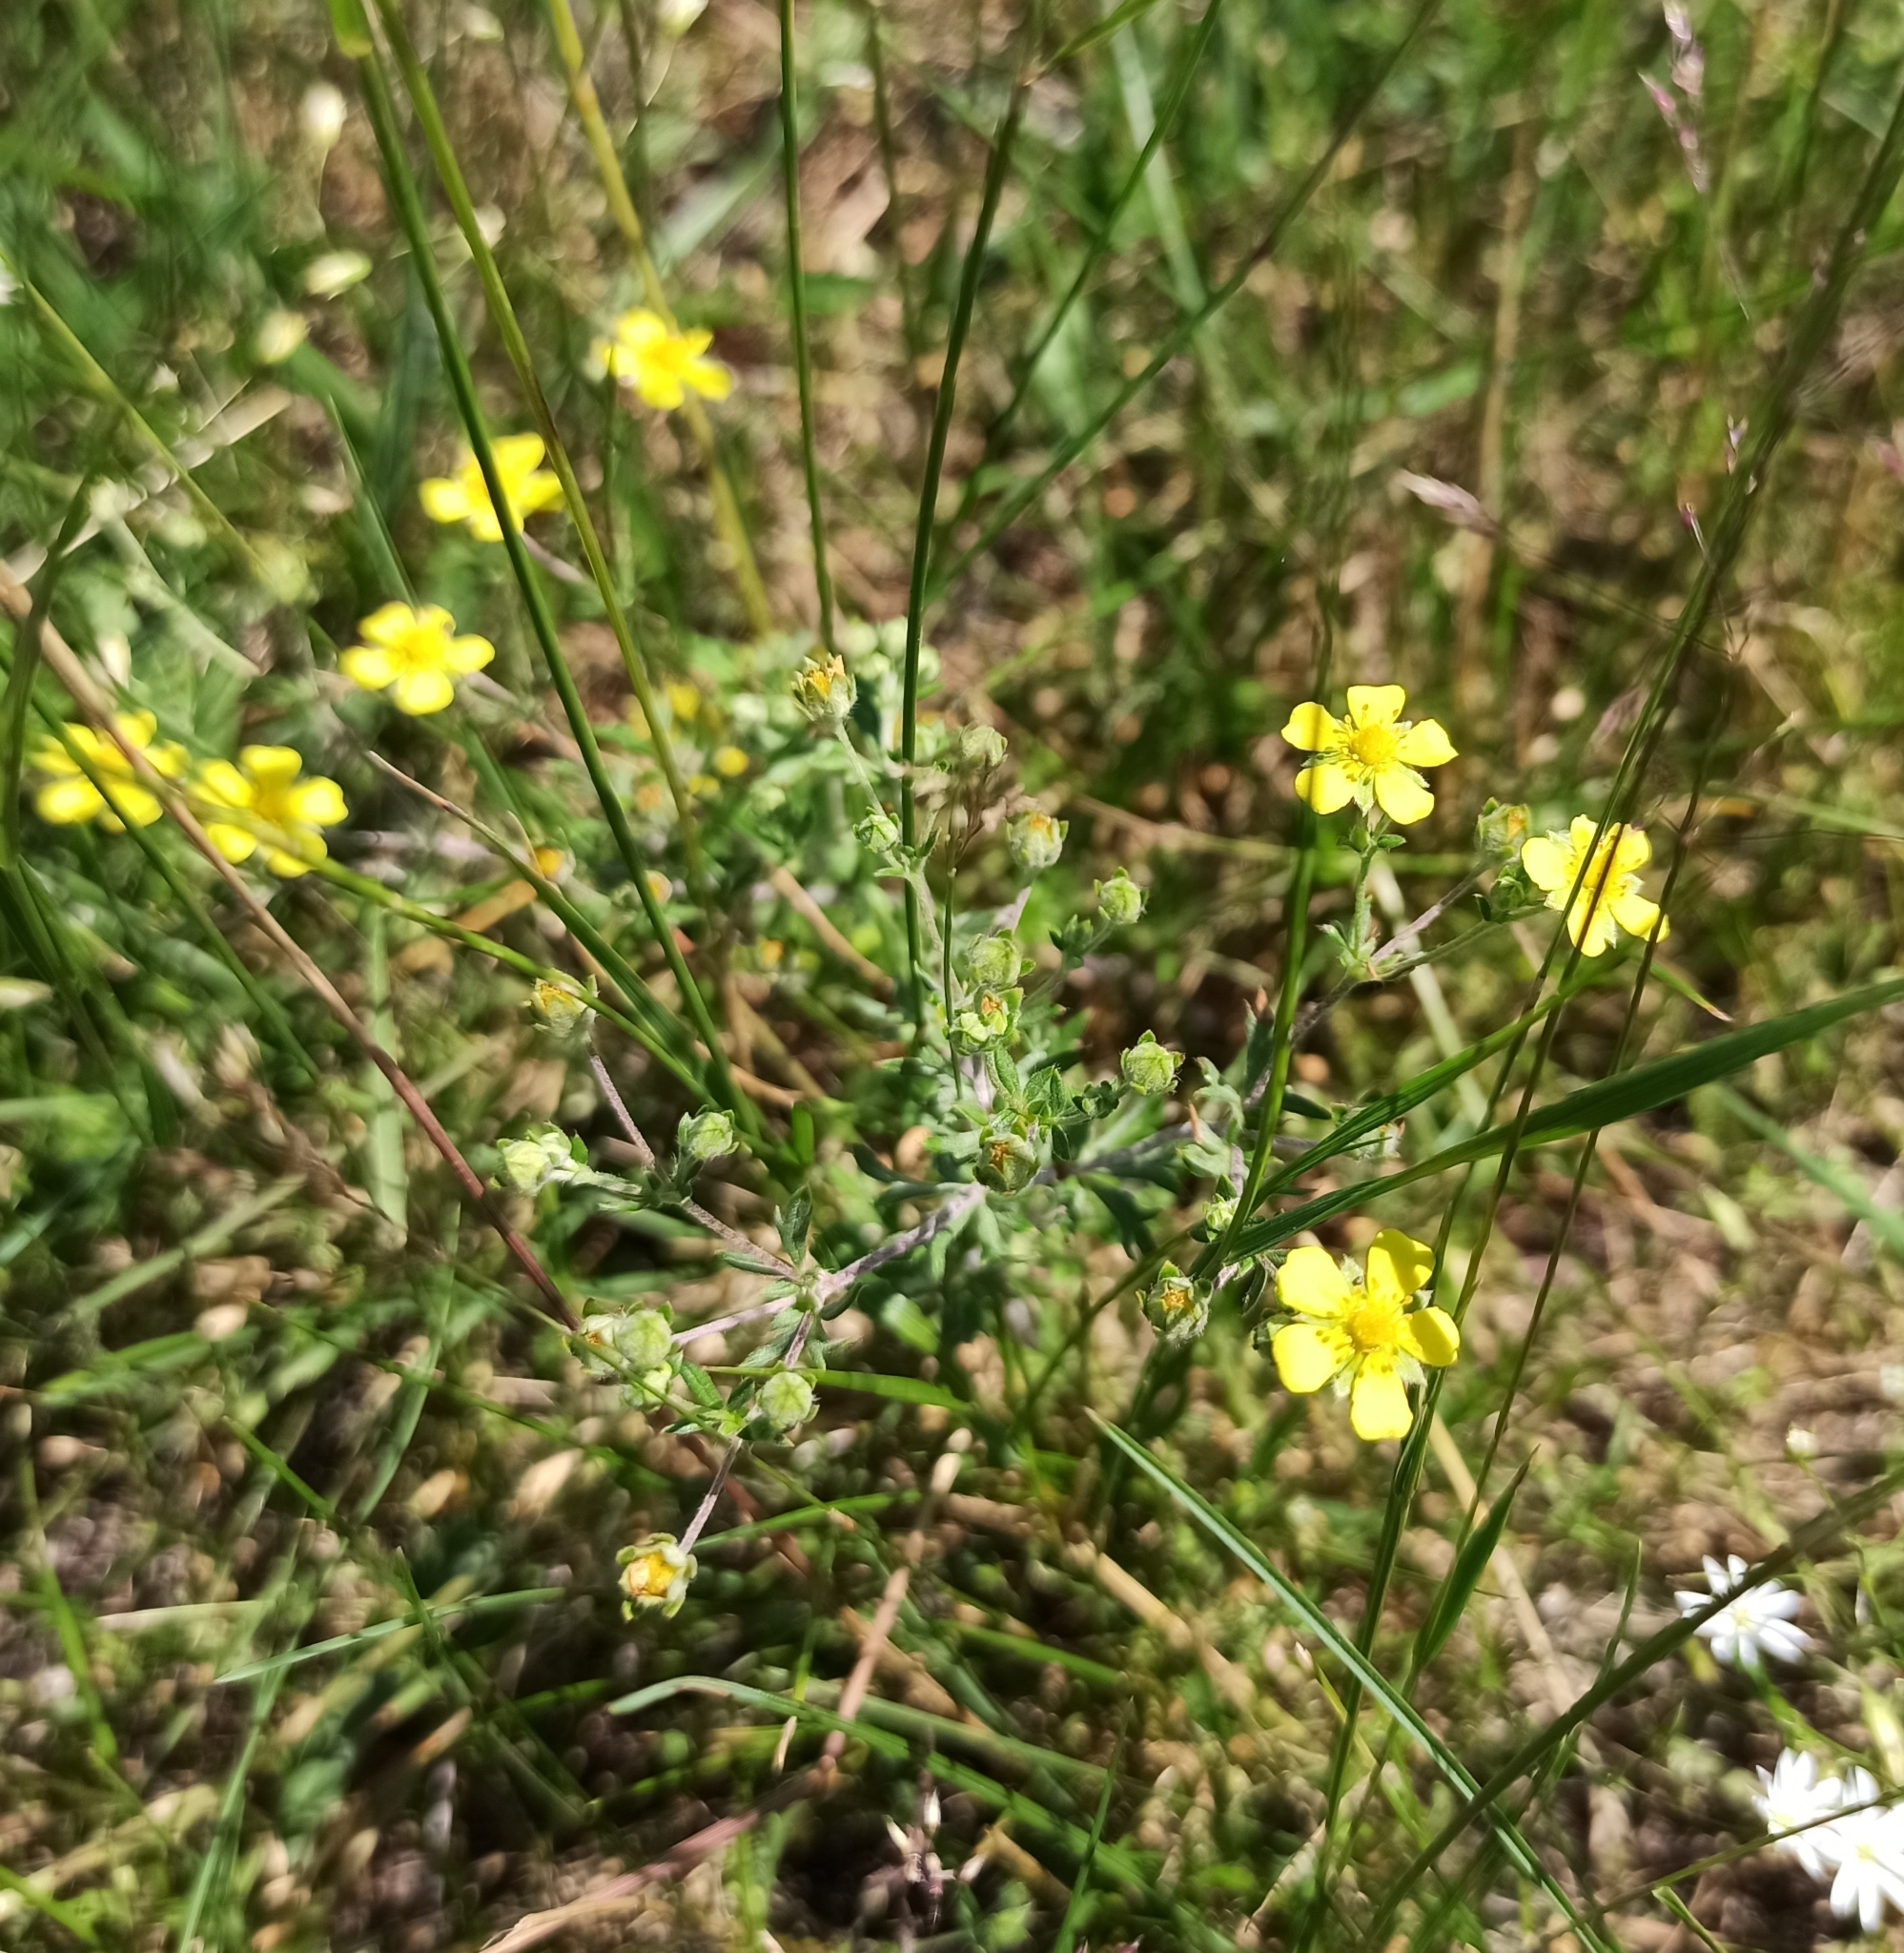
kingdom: Plantae
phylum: Tracheophyta
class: Magnoliopsida
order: Rosales
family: Rosaceae
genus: Potentilla
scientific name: Potentilla argentea
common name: Hoary cinquefoil
